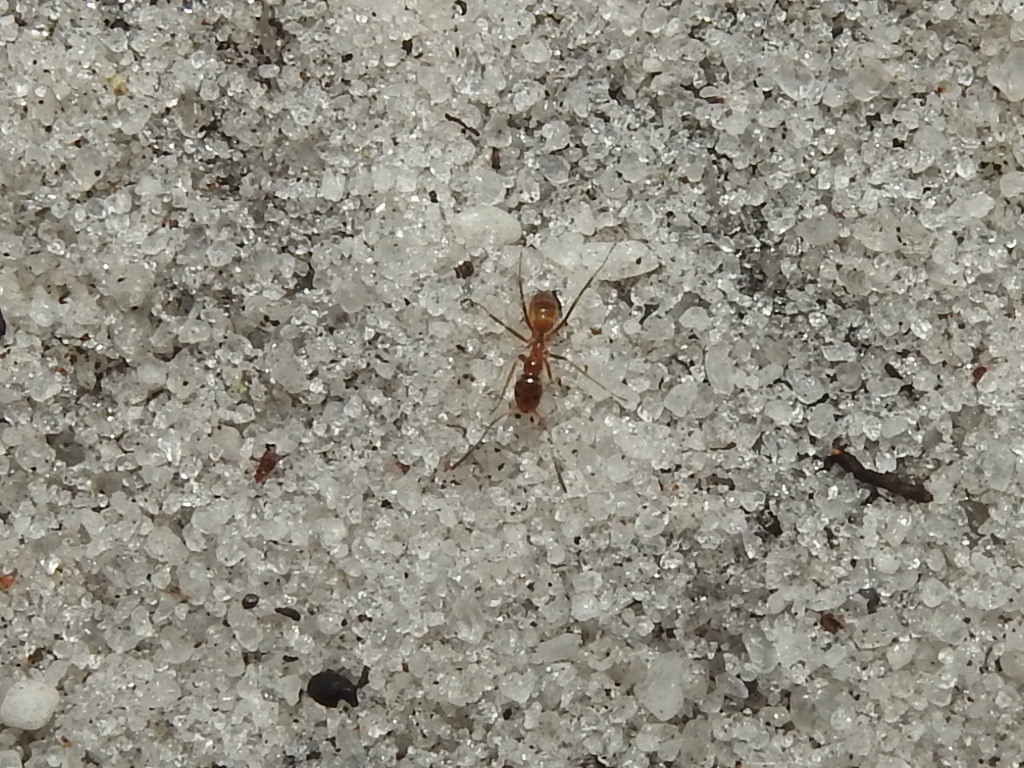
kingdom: Animalia
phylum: Arthropoda
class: Insecta
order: Hymenoptera
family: Formicidae
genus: Dorymyrmex
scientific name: Dorymyrmex bureni
